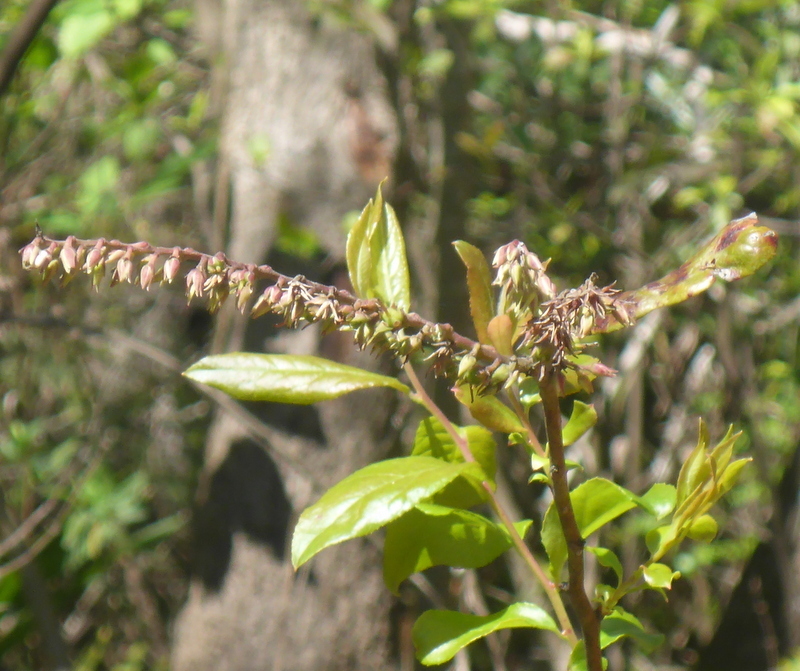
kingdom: Plantae
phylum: Tracheophyta
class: Magnoliopsida
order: Ericales
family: Ericaceae
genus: Eubotrys
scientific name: Eubotrys racemosa
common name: Fetterbush
